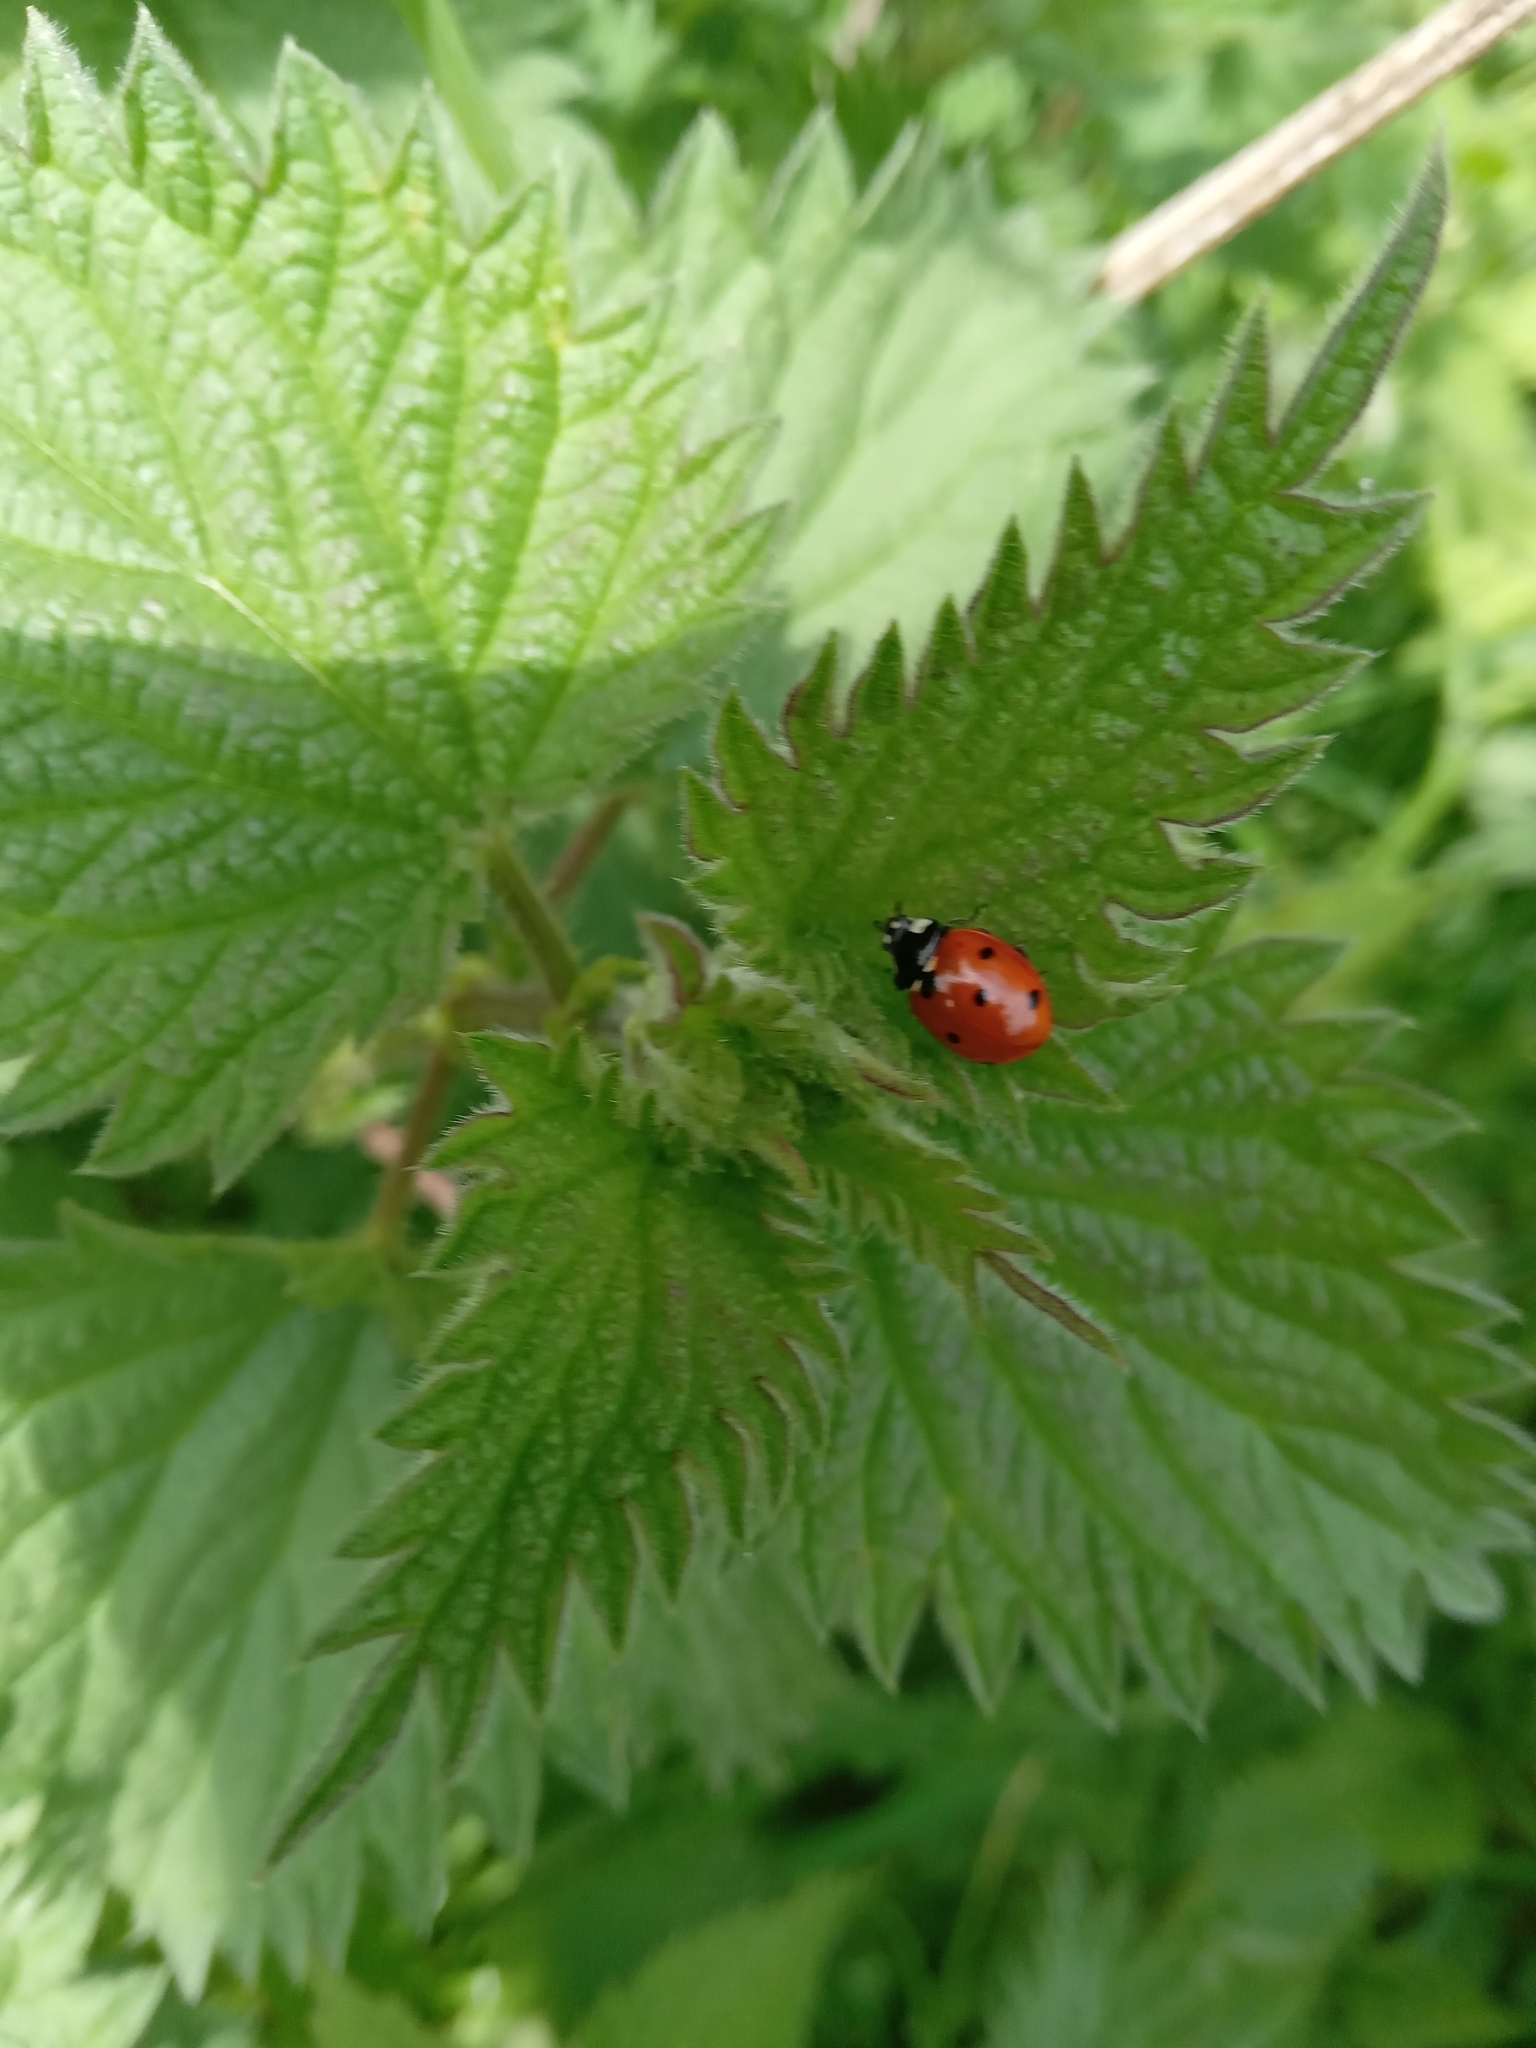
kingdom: Animalia
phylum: Arthropoda
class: Insecta
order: Coleoptera
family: Coccinellidae
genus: Coccinella
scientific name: Coccinella septempunctata
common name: Sevenspotted lady beetle
